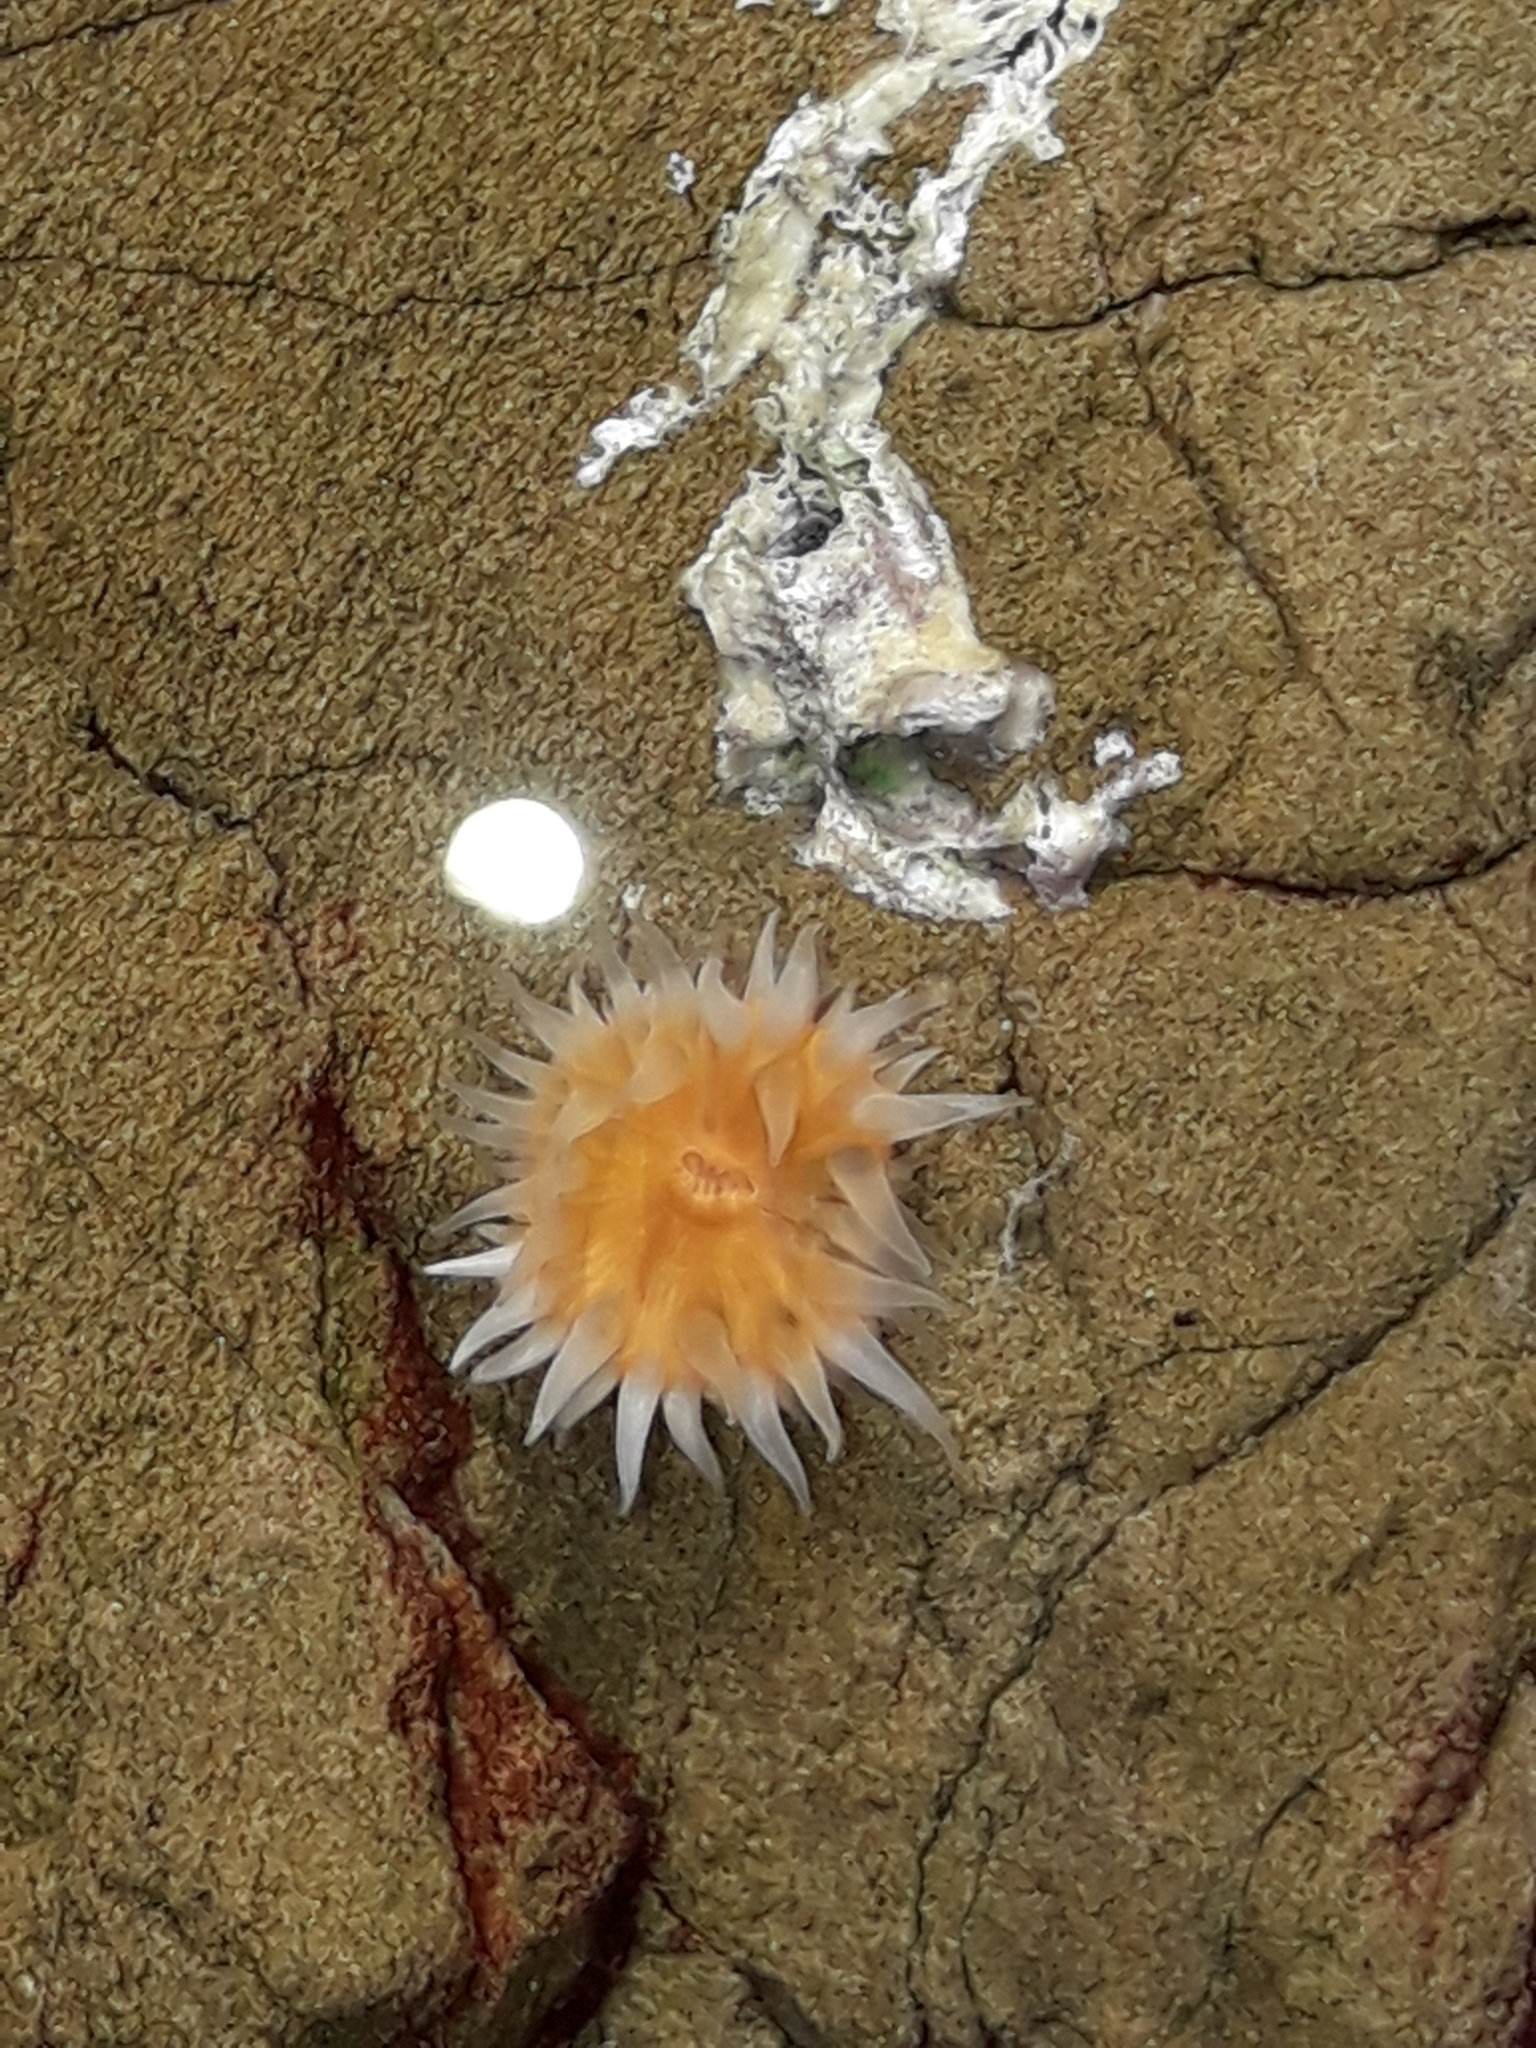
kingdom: Animalia
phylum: Cnidaria
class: Anthozoa
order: Actiniaria
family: Sagartiidae
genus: Anthothoe
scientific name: Anthothoe albocincta
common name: Orange striped anemone
